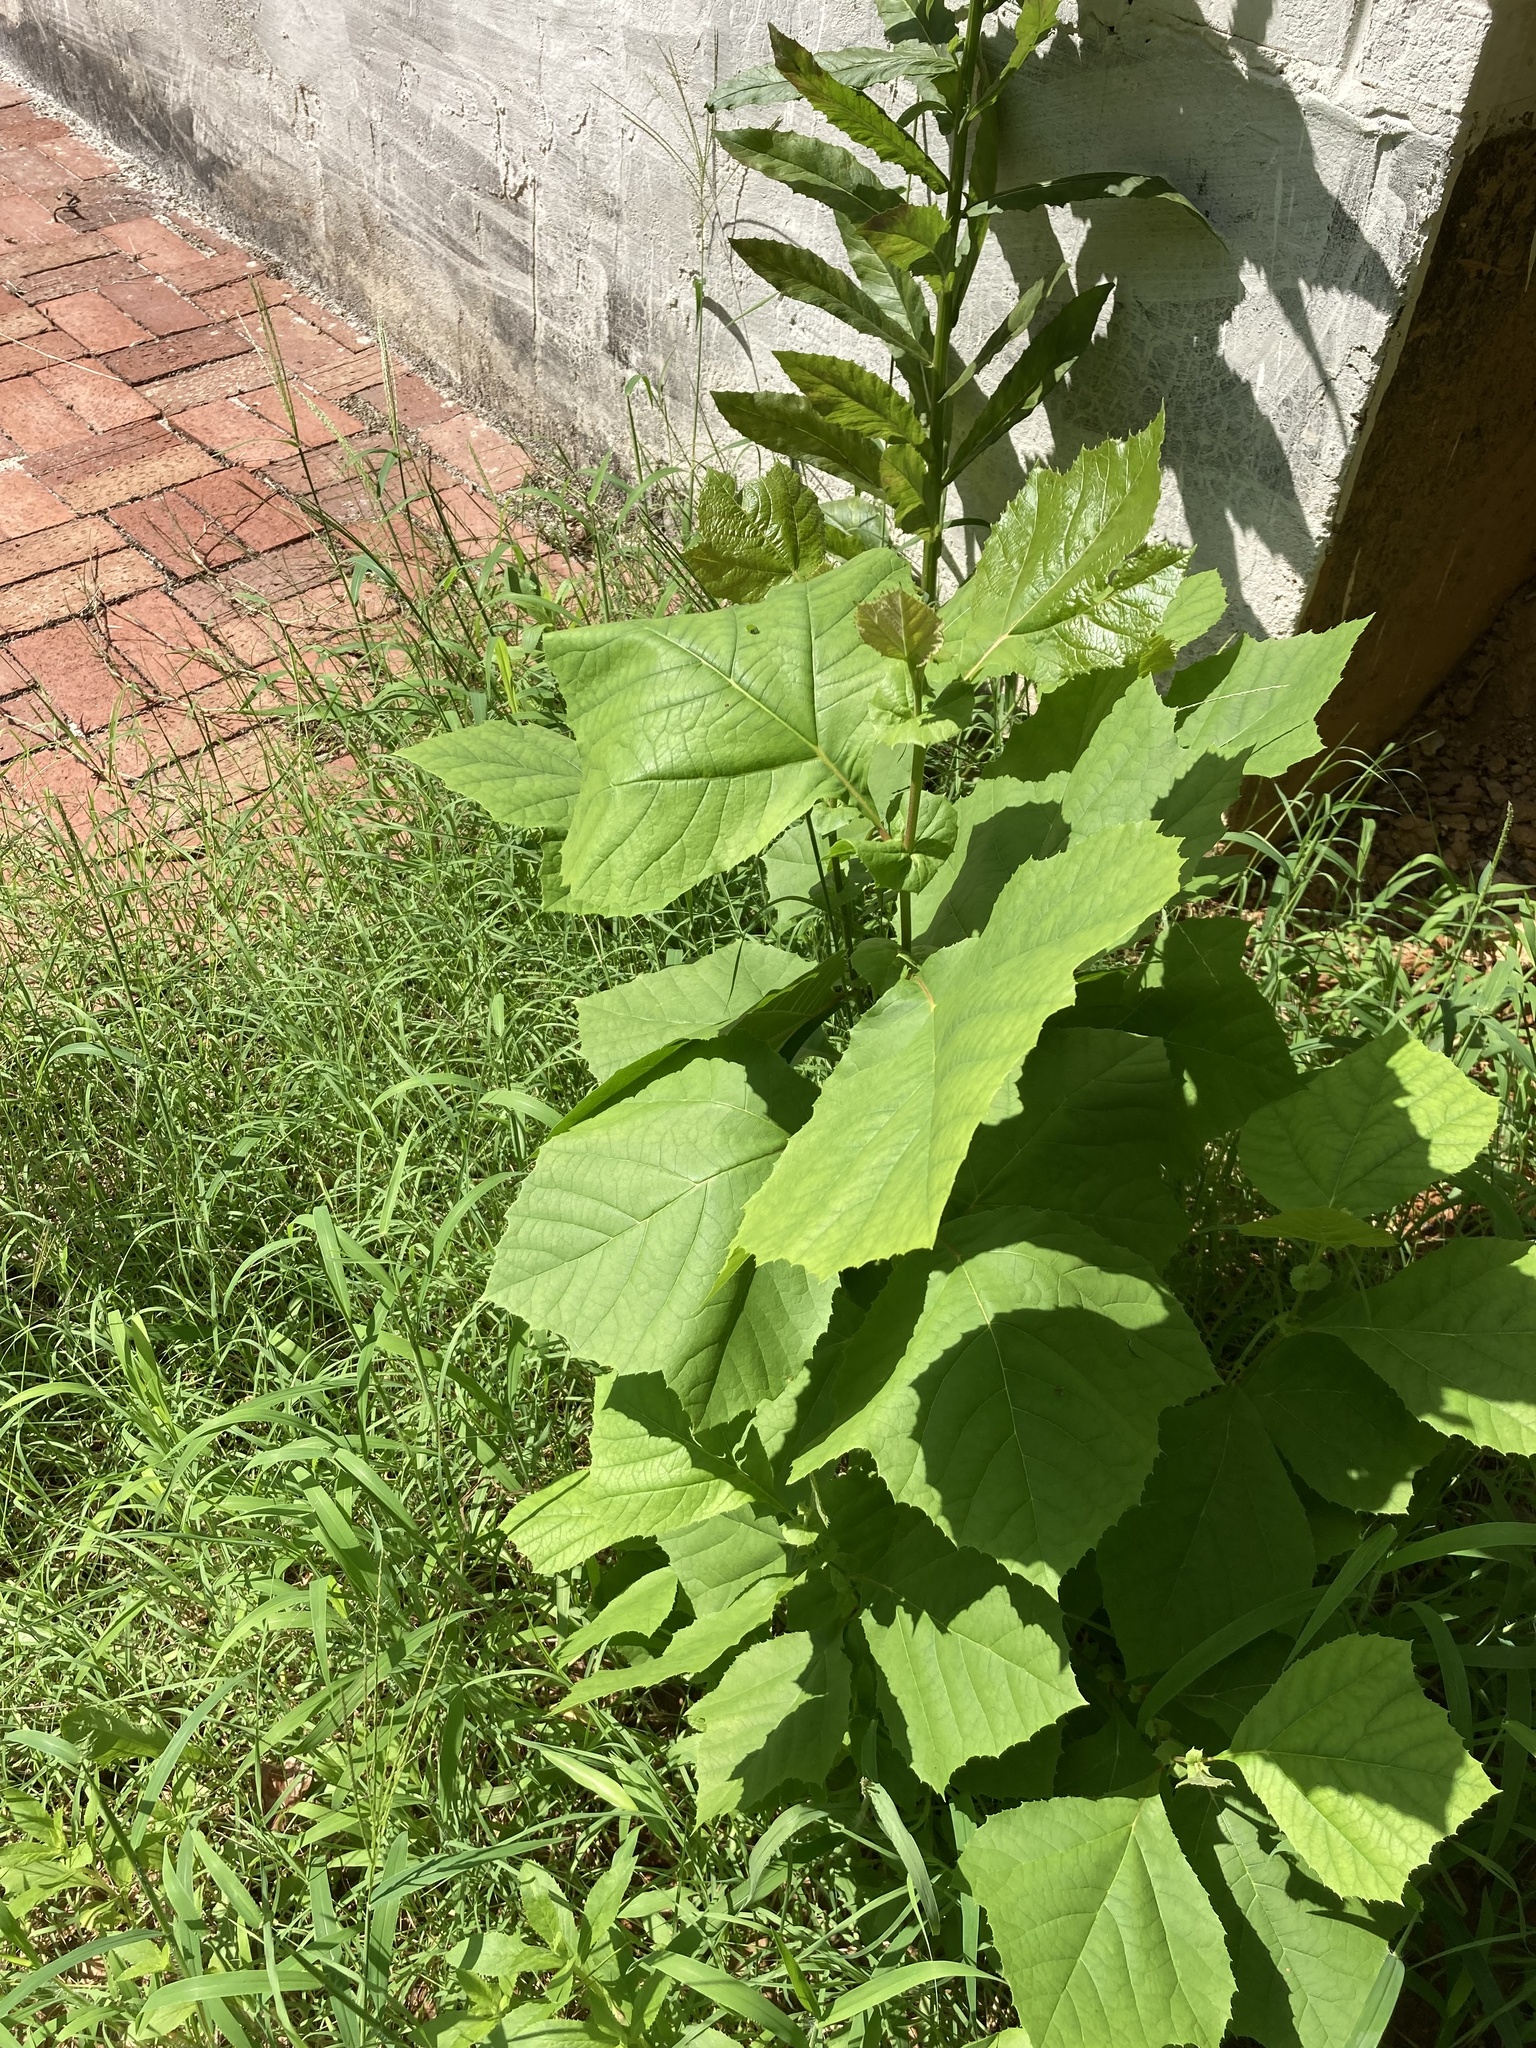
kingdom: Plantae
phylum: Tracheophyta
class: Magnoliopsida
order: Proteales
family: Platanaceae
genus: Platanus
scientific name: Platanus occidentalis
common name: American sycamore
